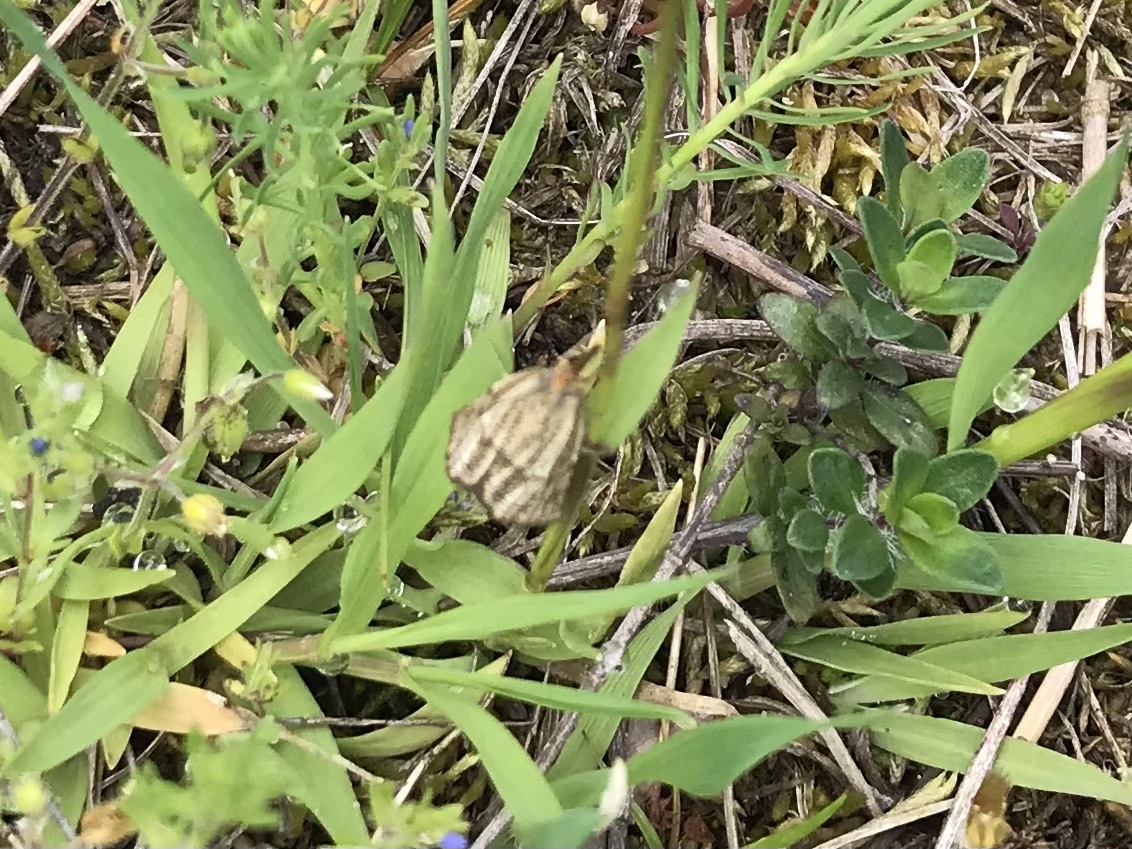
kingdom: Animalia
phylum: Arthropoda
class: Insecta
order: Lepidoptera
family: Crambidae
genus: Thisanotia
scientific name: Thisanotia chrysonuchella
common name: Powdered grass-veneer
